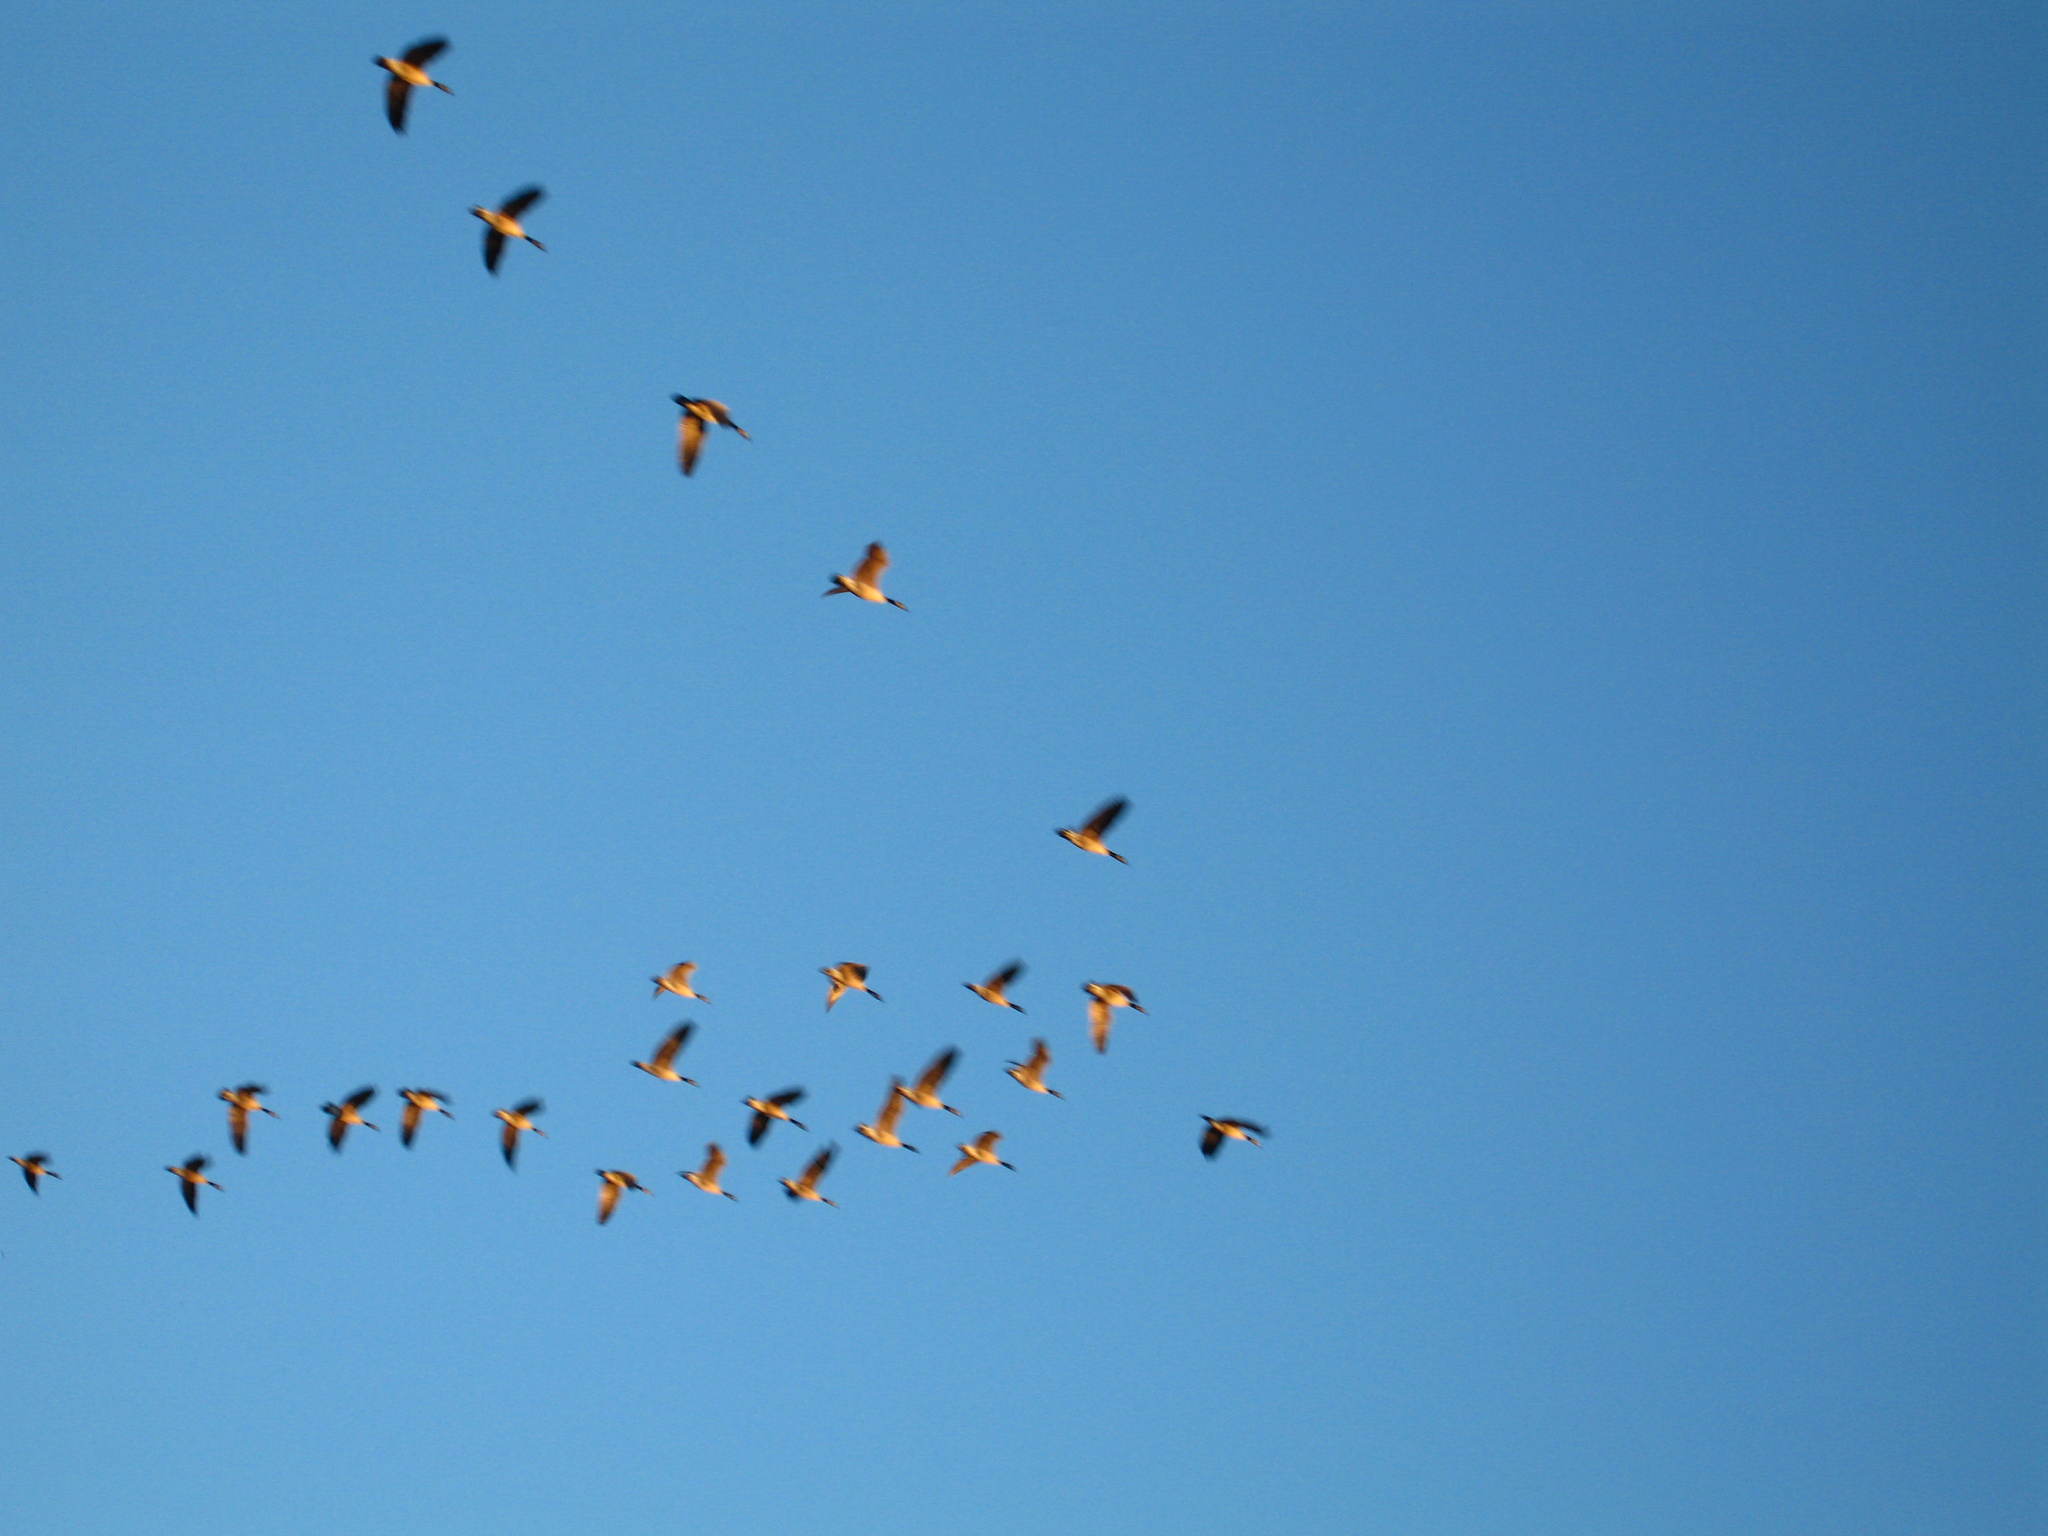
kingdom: Animalia
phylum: Chordata
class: Aves
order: Anseriformes
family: Anatidae
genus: Branta
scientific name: Branta canadensis
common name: Canada goose
